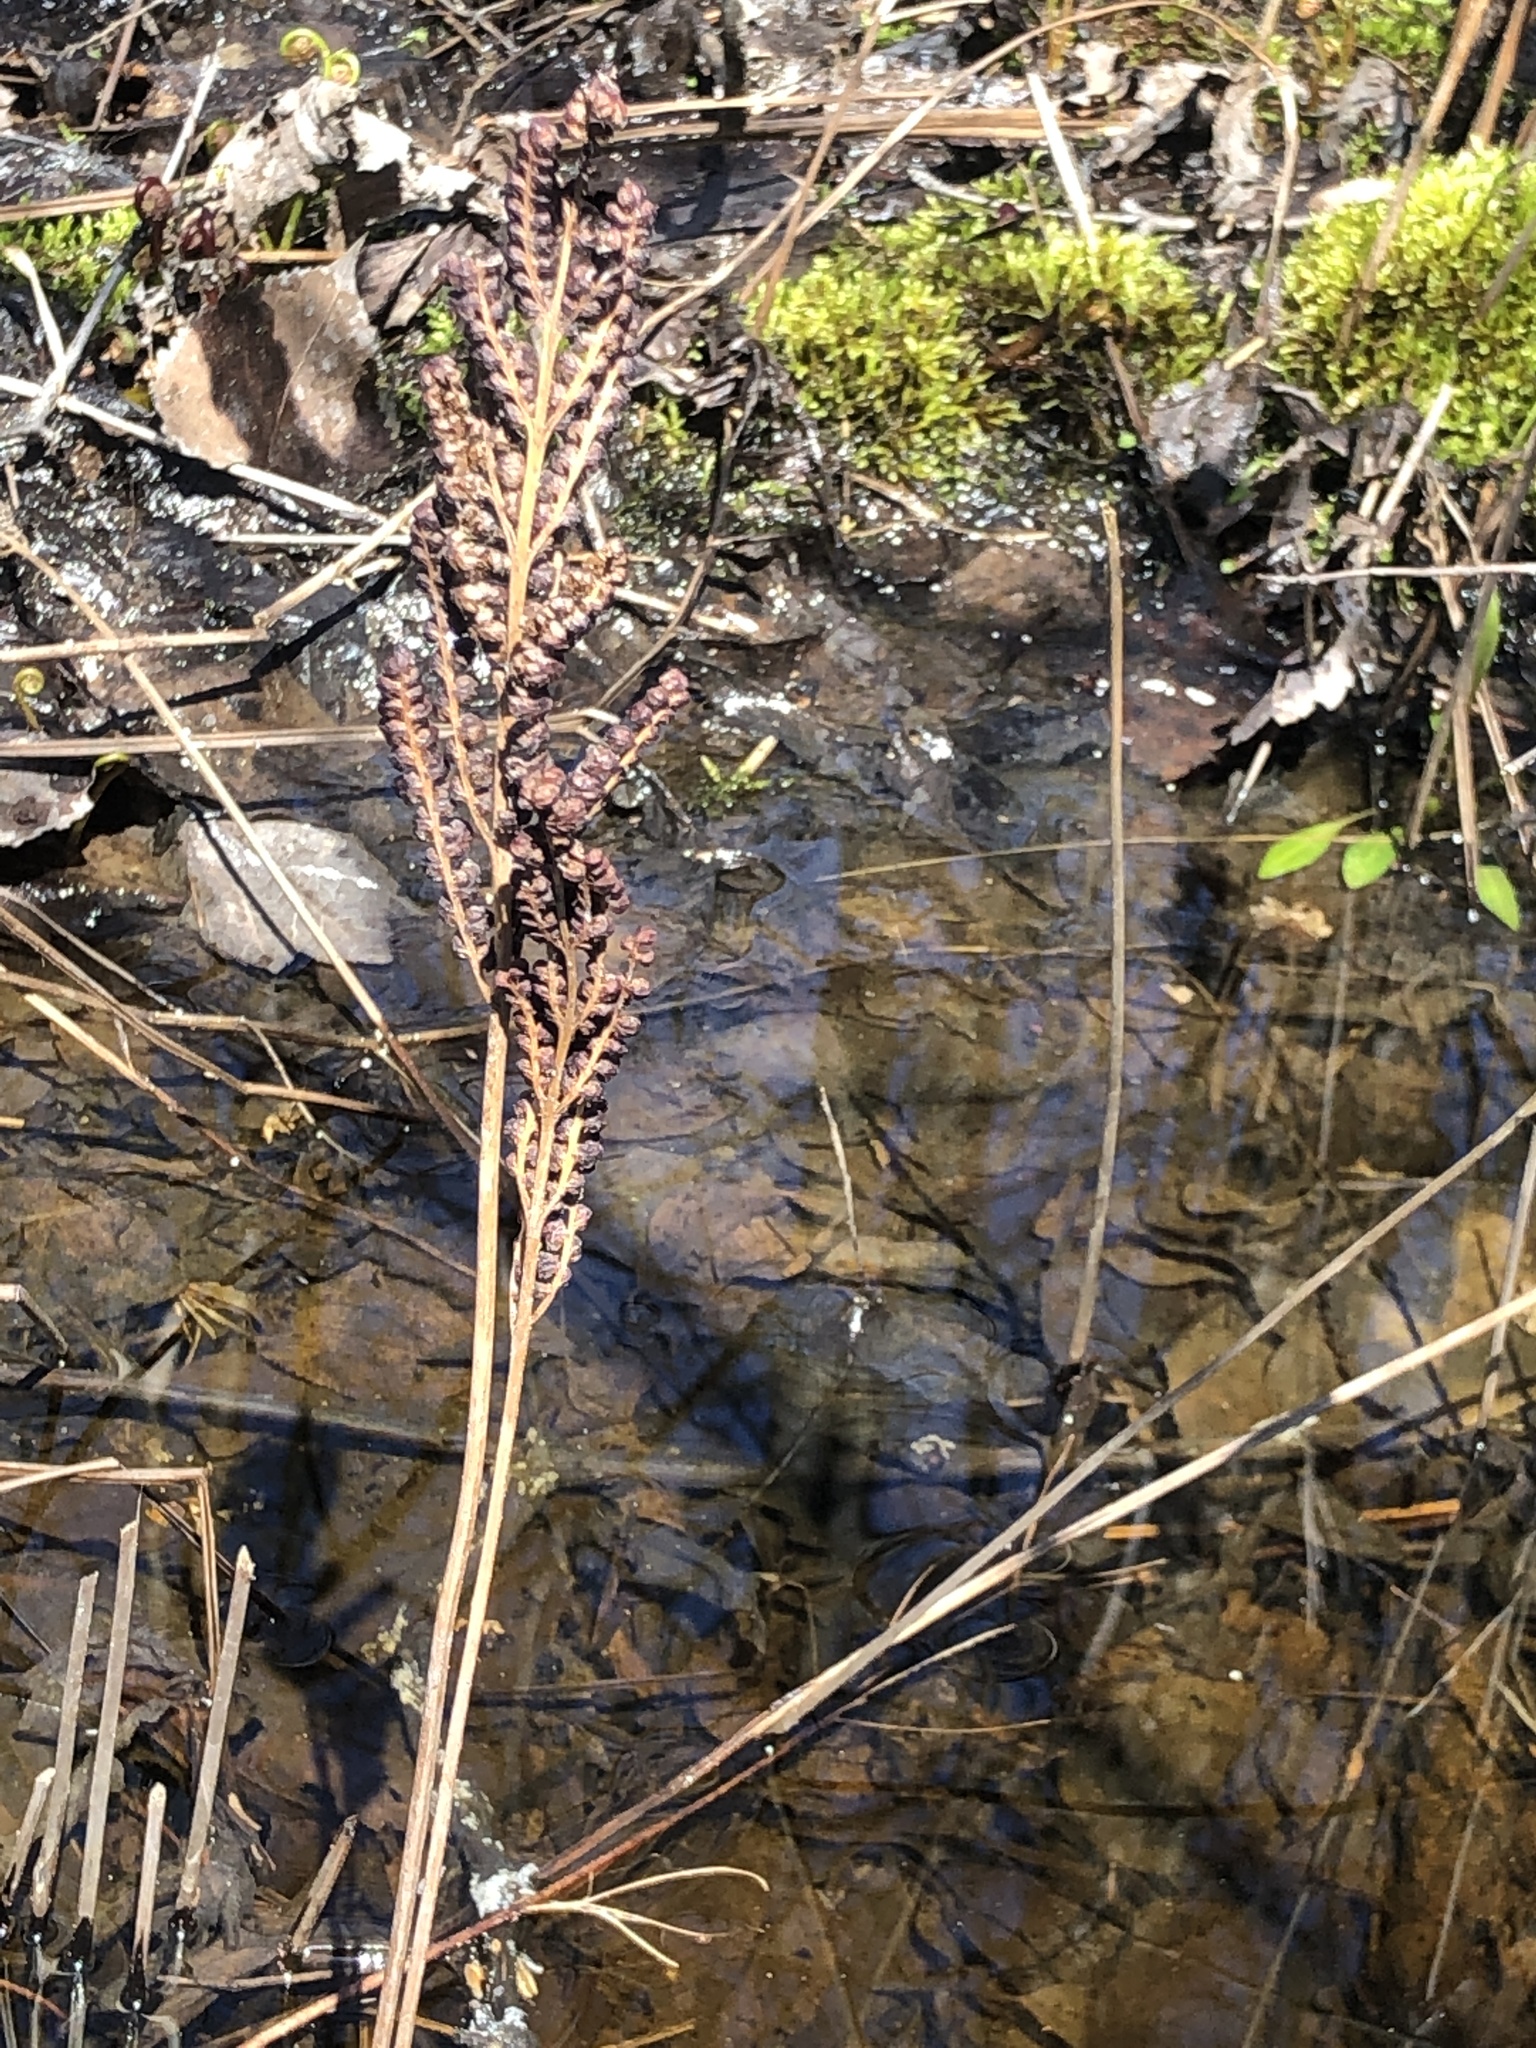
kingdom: Plantae
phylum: Tracheophyta
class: Polypodiopsida
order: Polypodiales
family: Onocleaceae
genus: Onoclea
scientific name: Onoclea sensibilis
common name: Sensitive fern
